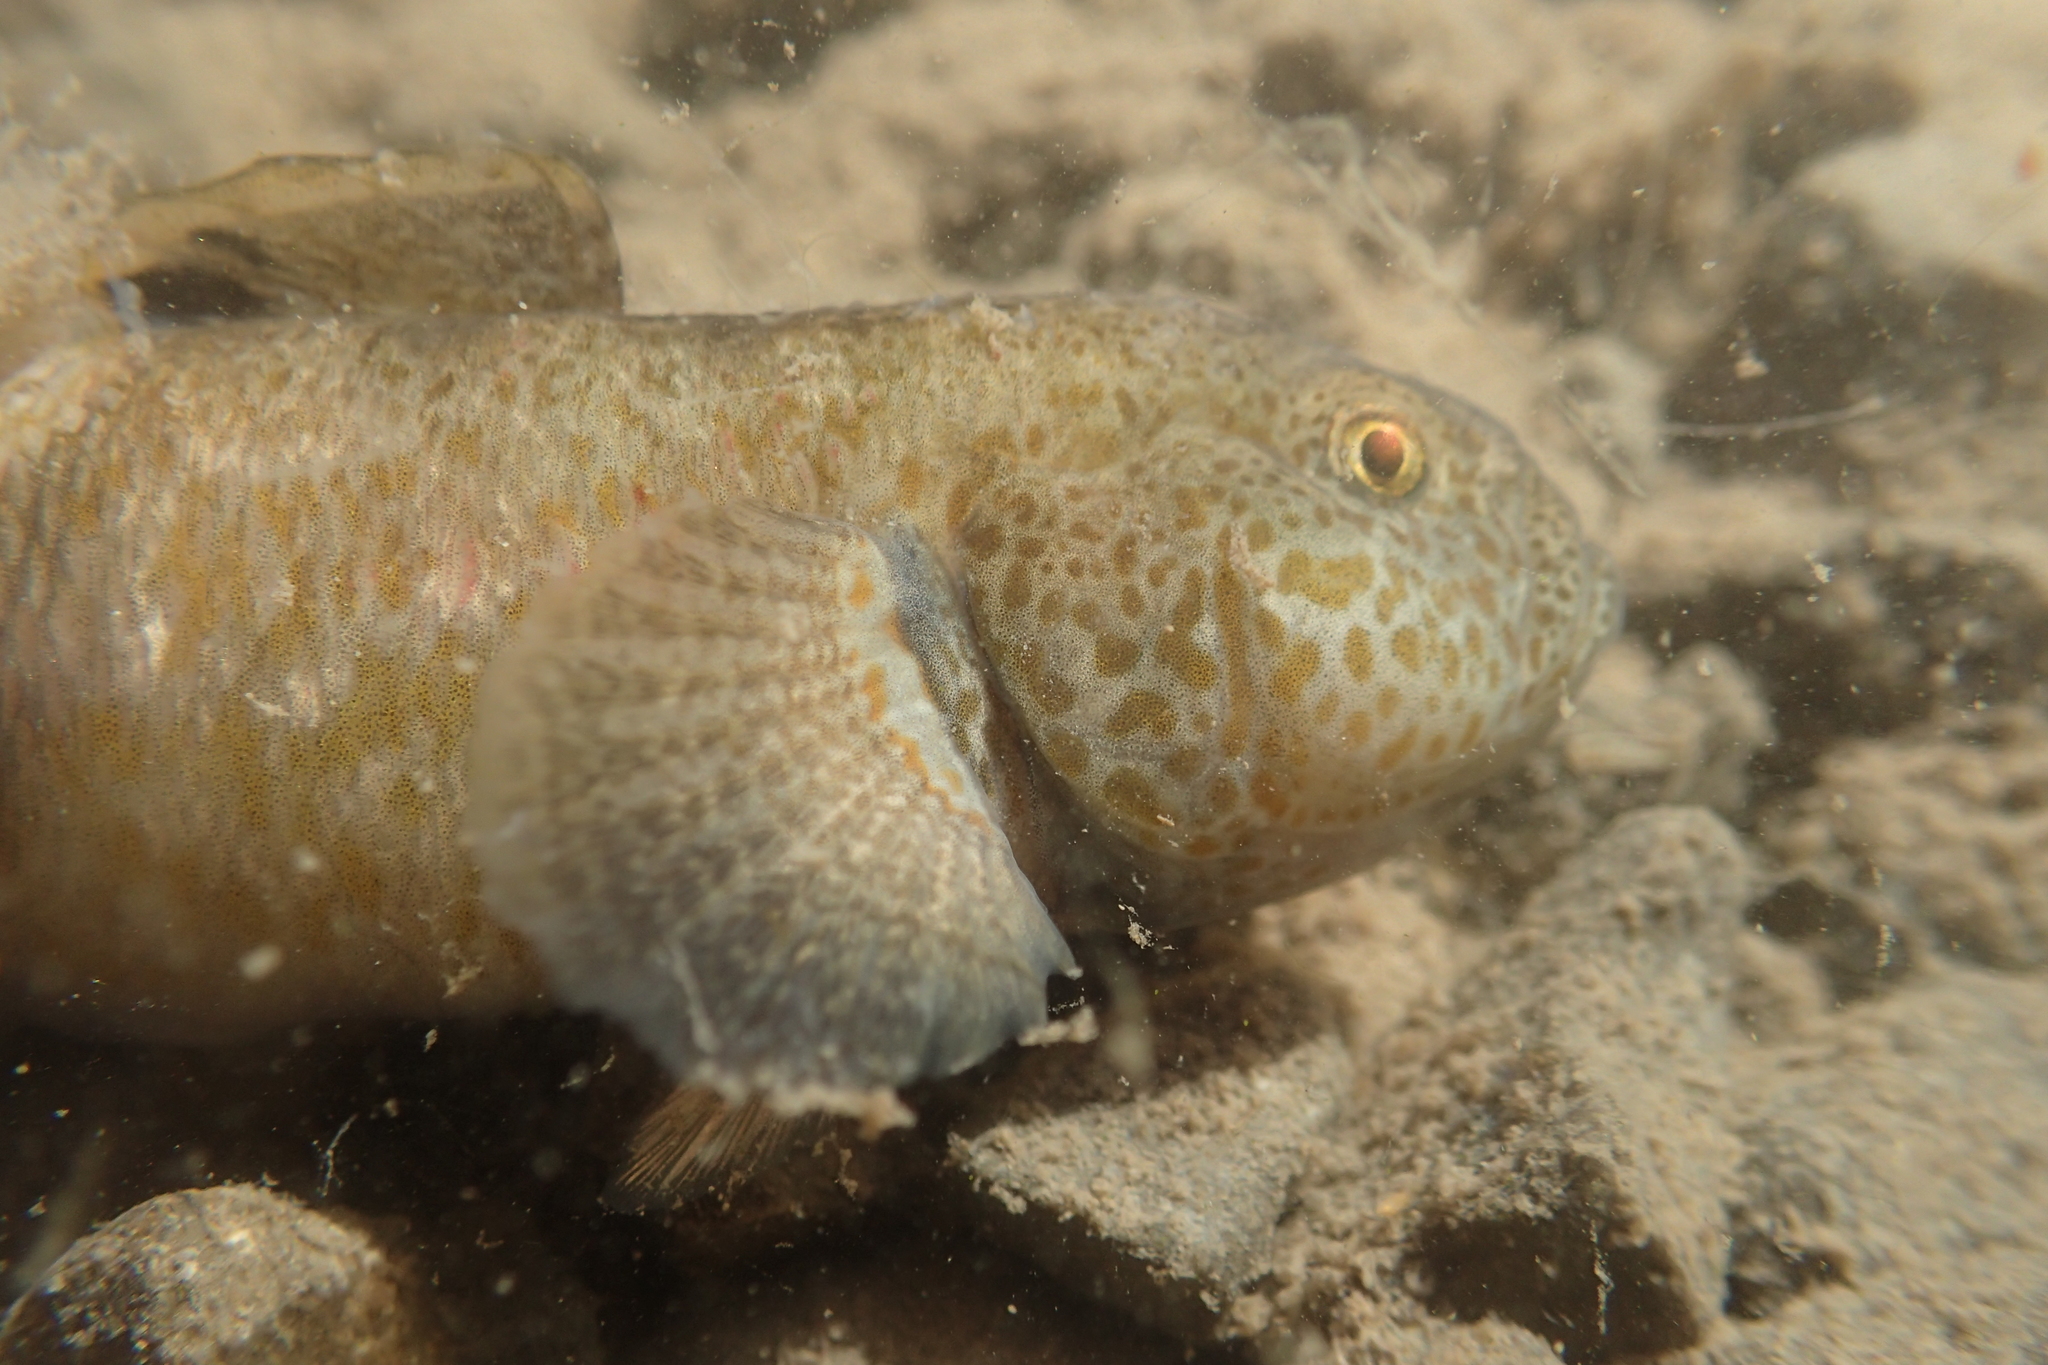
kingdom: Animalia
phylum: Chordata
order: Perciformes
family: Eleotridae
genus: Gobiomorphus
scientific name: Gobiomorphus breviceps
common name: Upland bully
